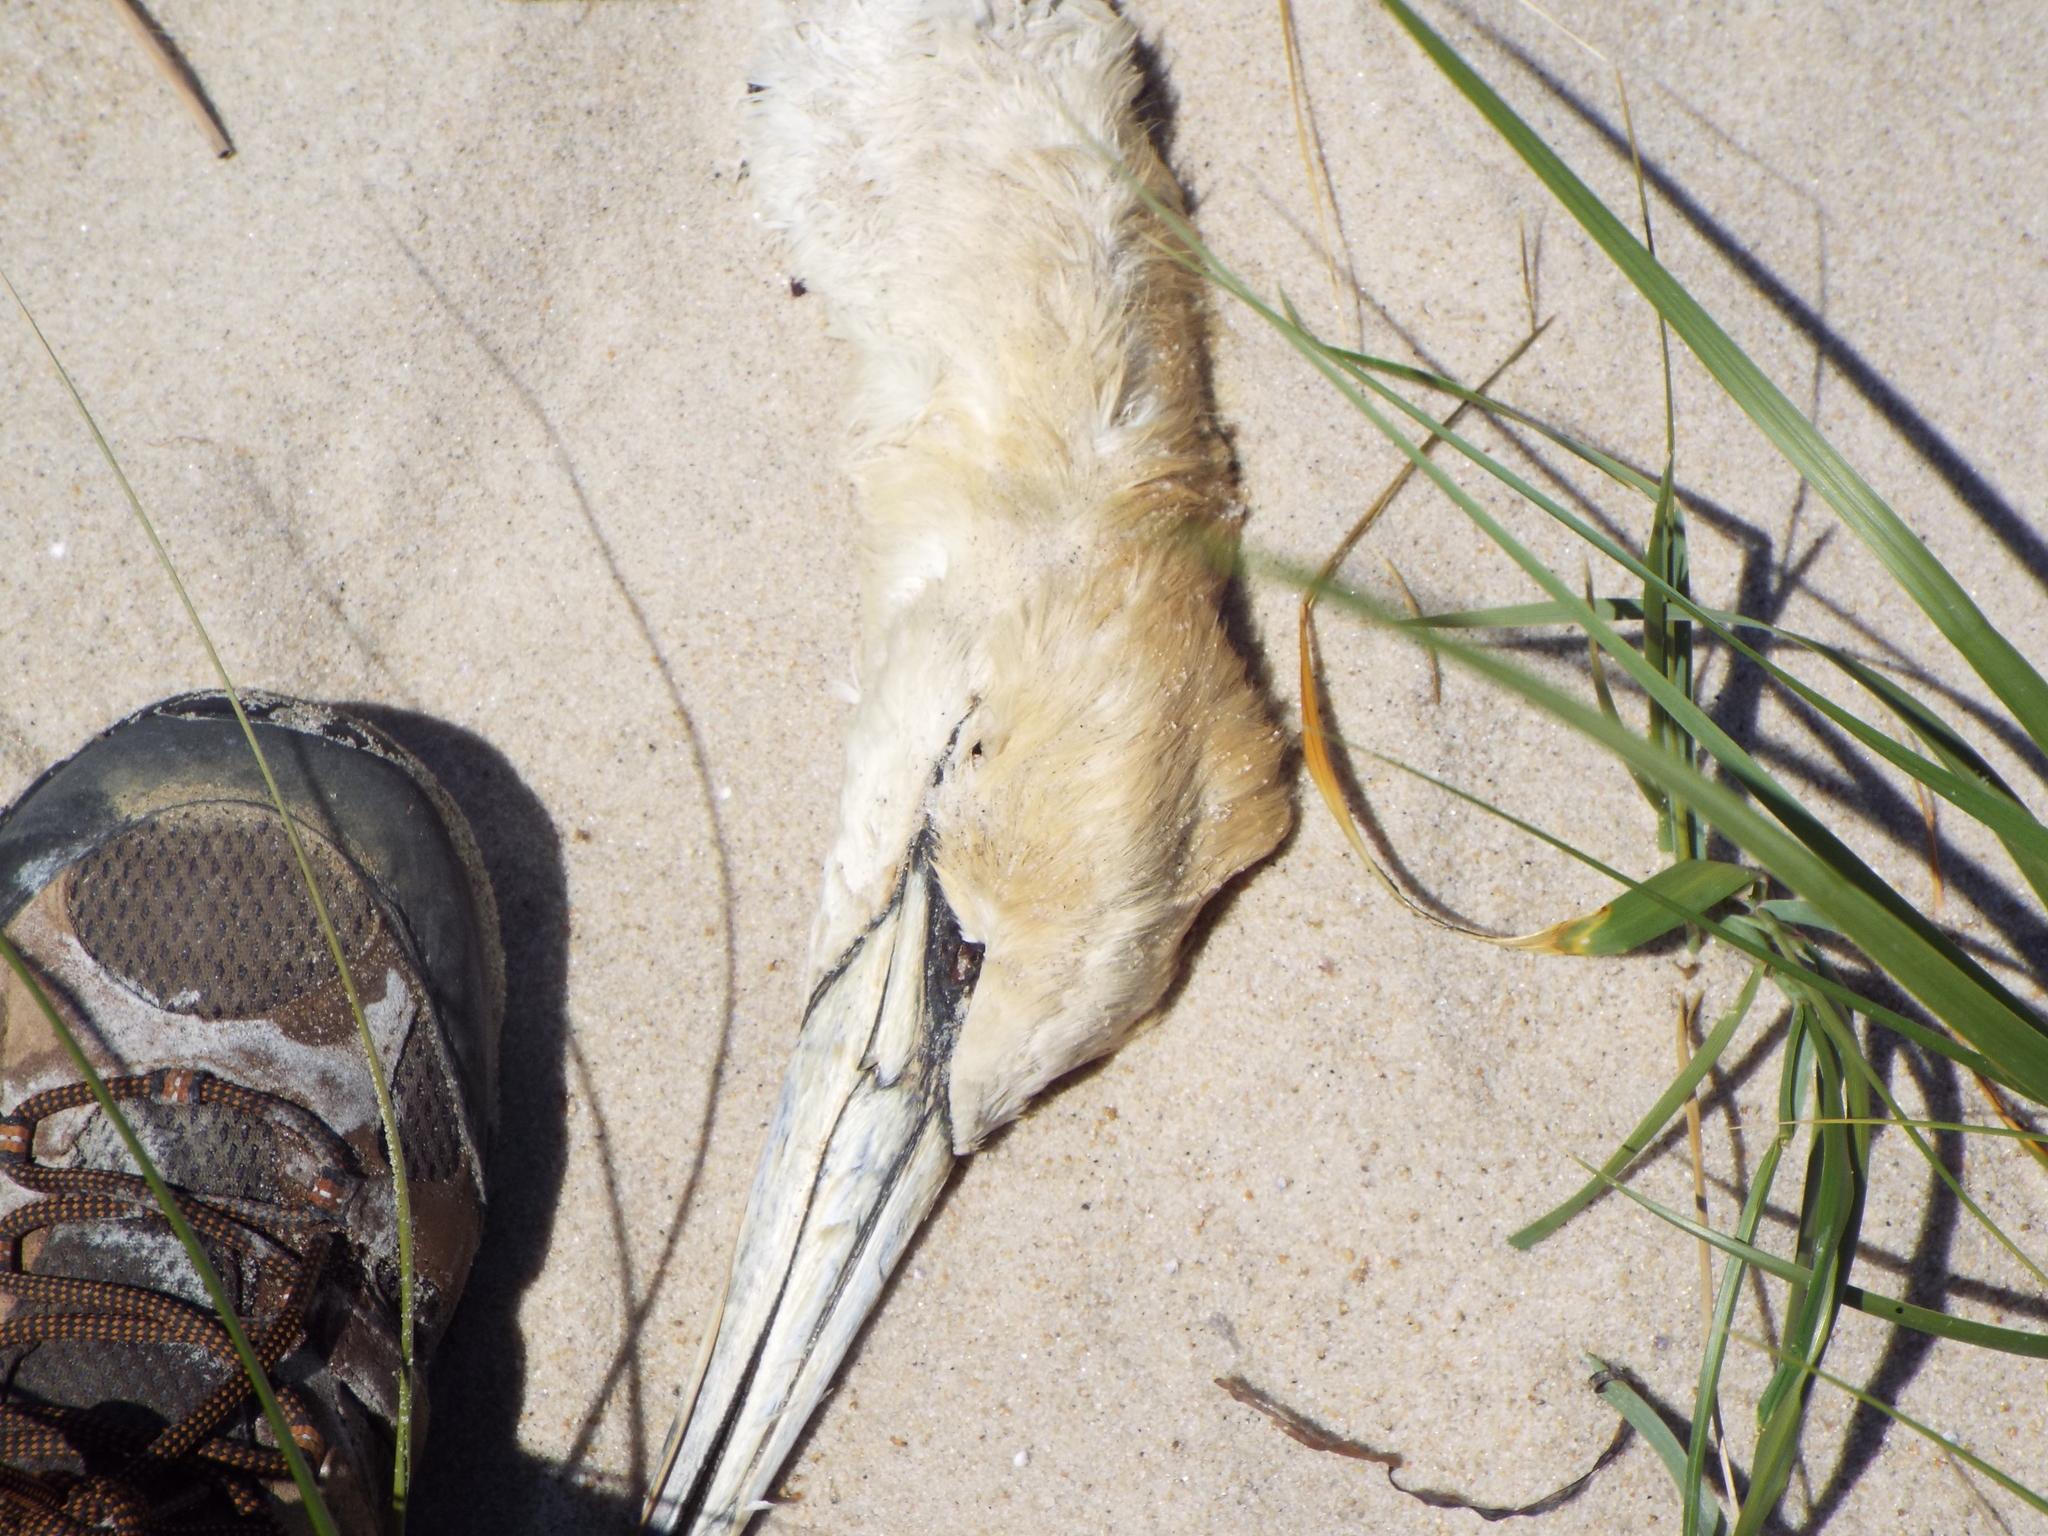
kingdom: Animalia
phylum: Chordata
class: Aves
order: Suliformes
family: Sulidae
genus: Morus
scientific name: Morus bassanus
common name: Northern gannet
